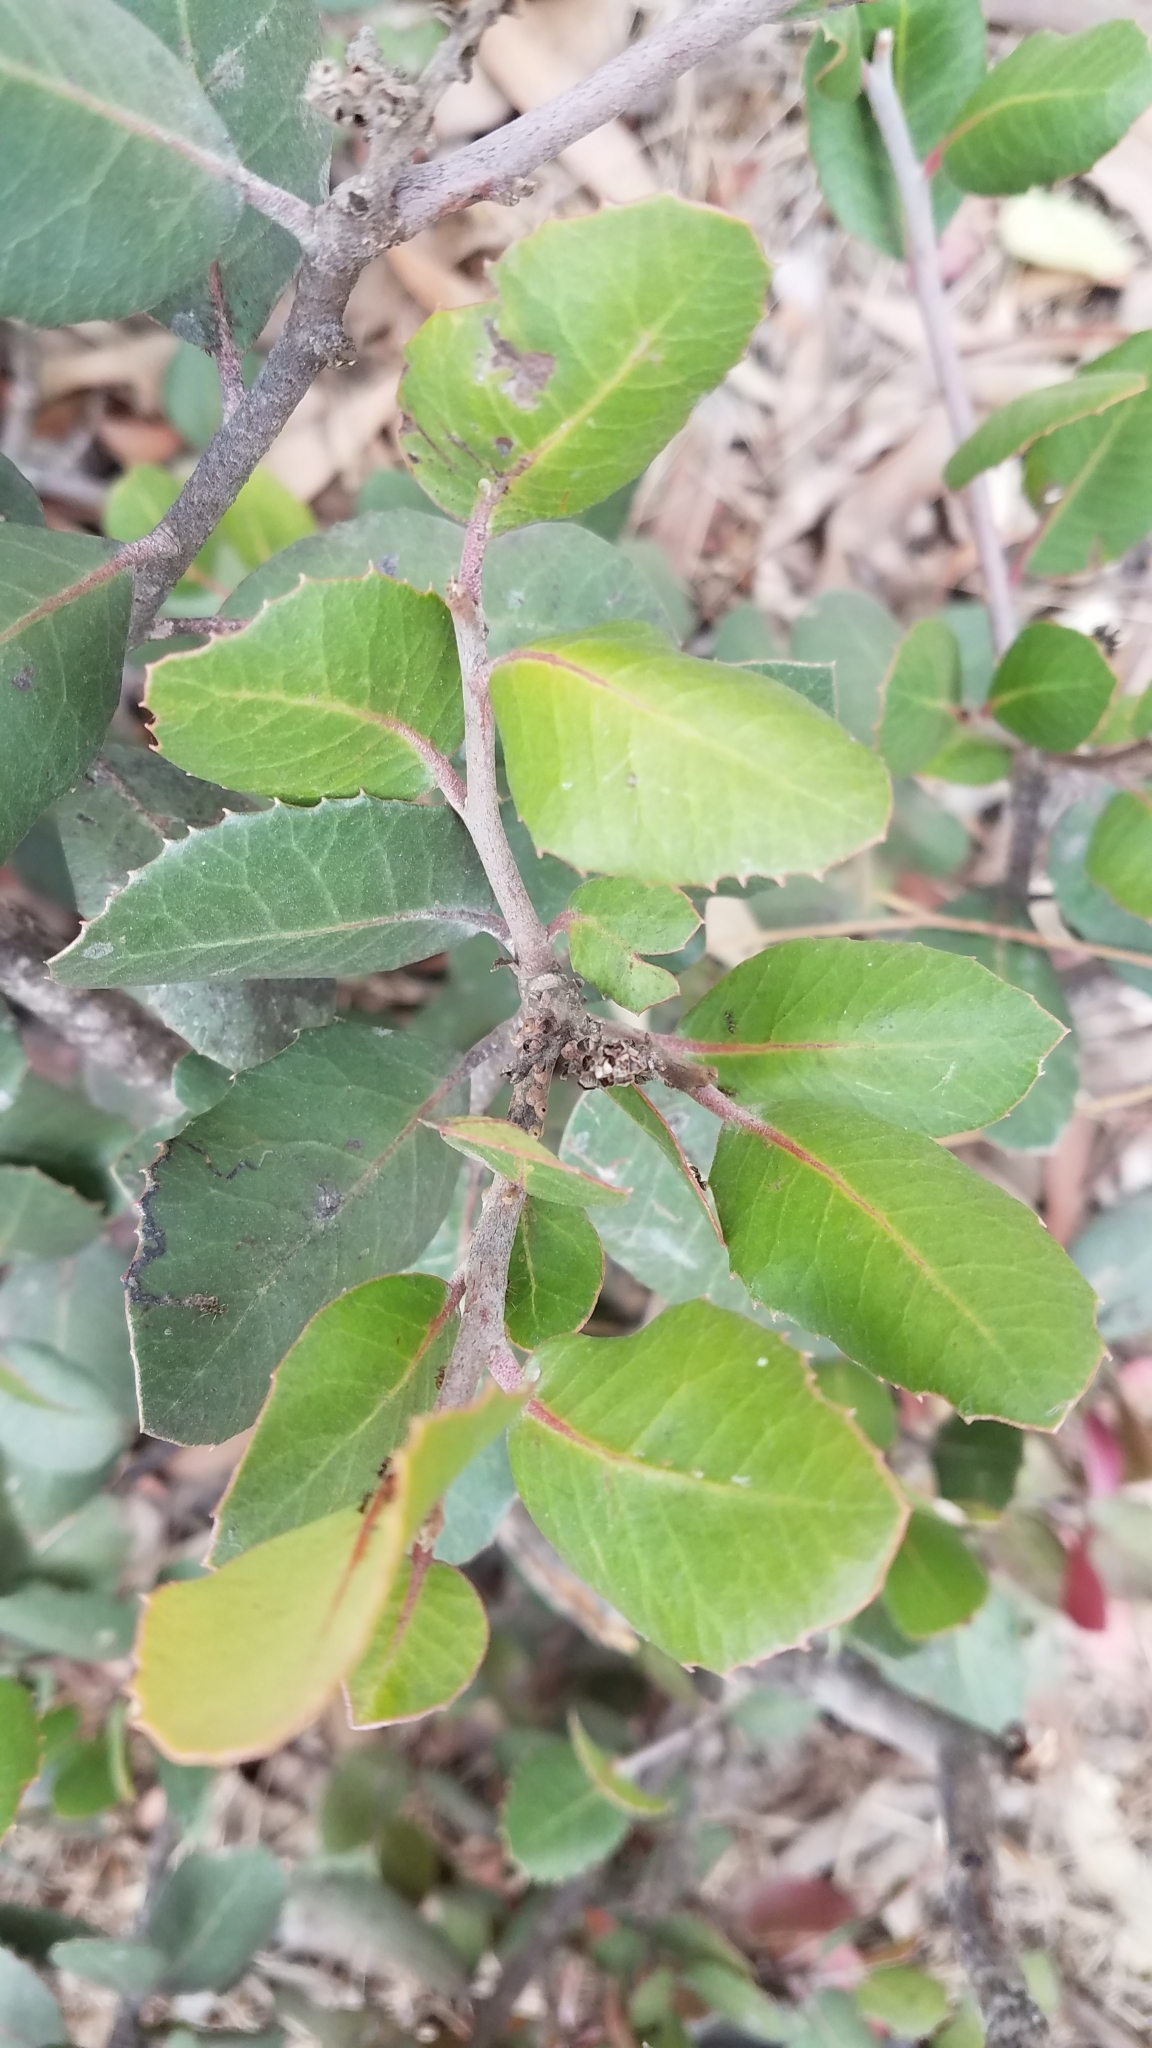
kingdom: Plantae
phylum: Tracheophyta
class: Magnoliopsida
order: Sapindales
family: Anacardiaceae
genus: Rhus
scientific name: Rhus integrifolia
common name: Lemonade sumac
